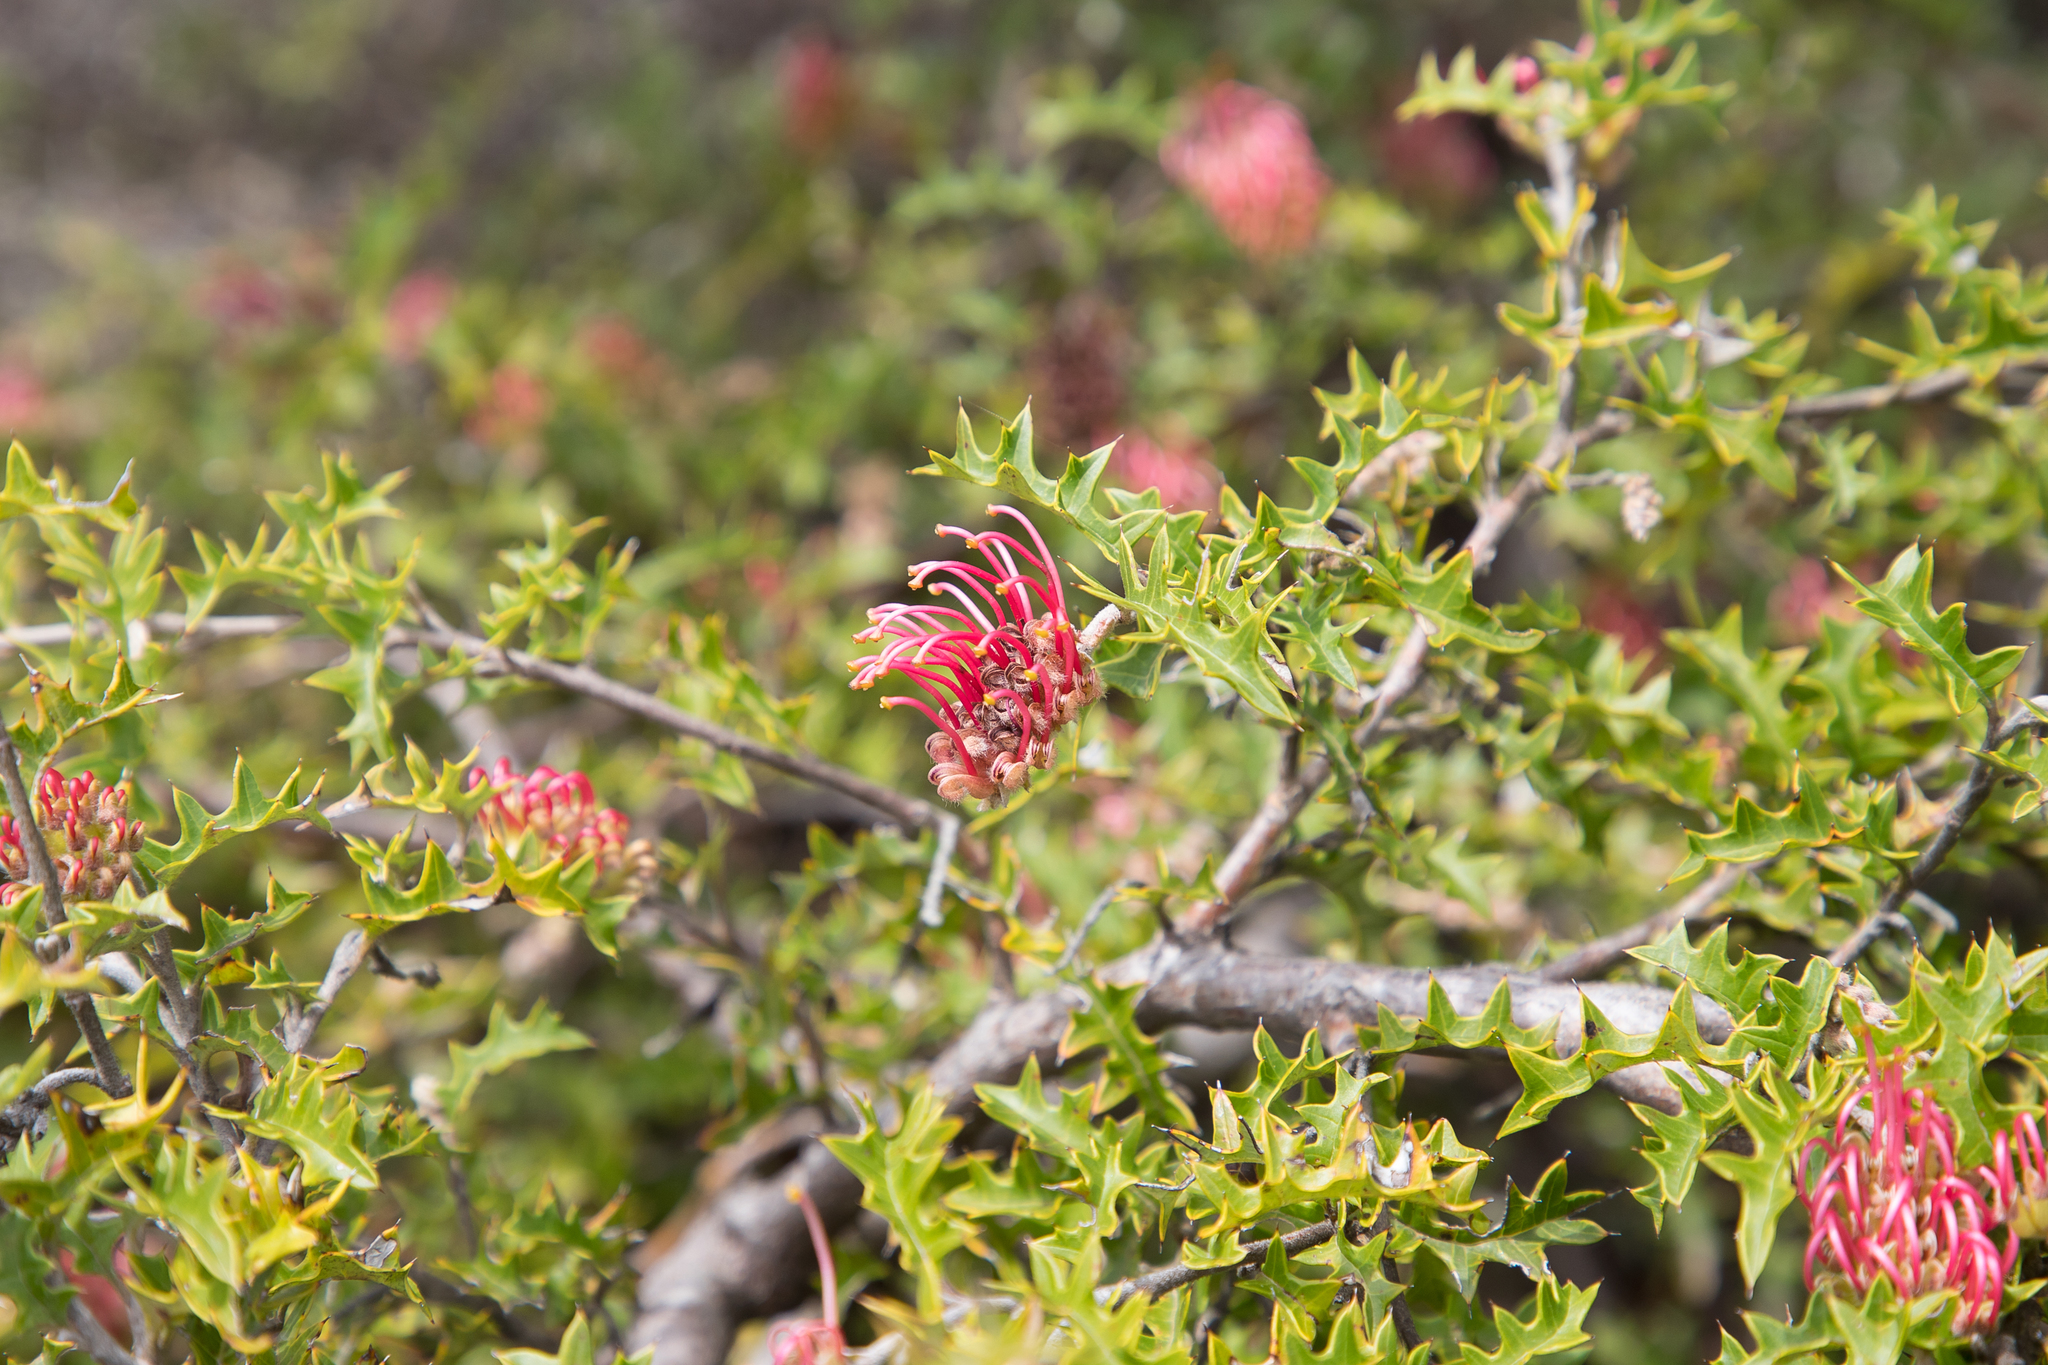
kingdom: Plantae
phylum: Tracheophyta
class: Magnoliopsida
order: Proteales
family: Proteaceae
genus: Grevillea
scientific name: Grevillea aquifolium
